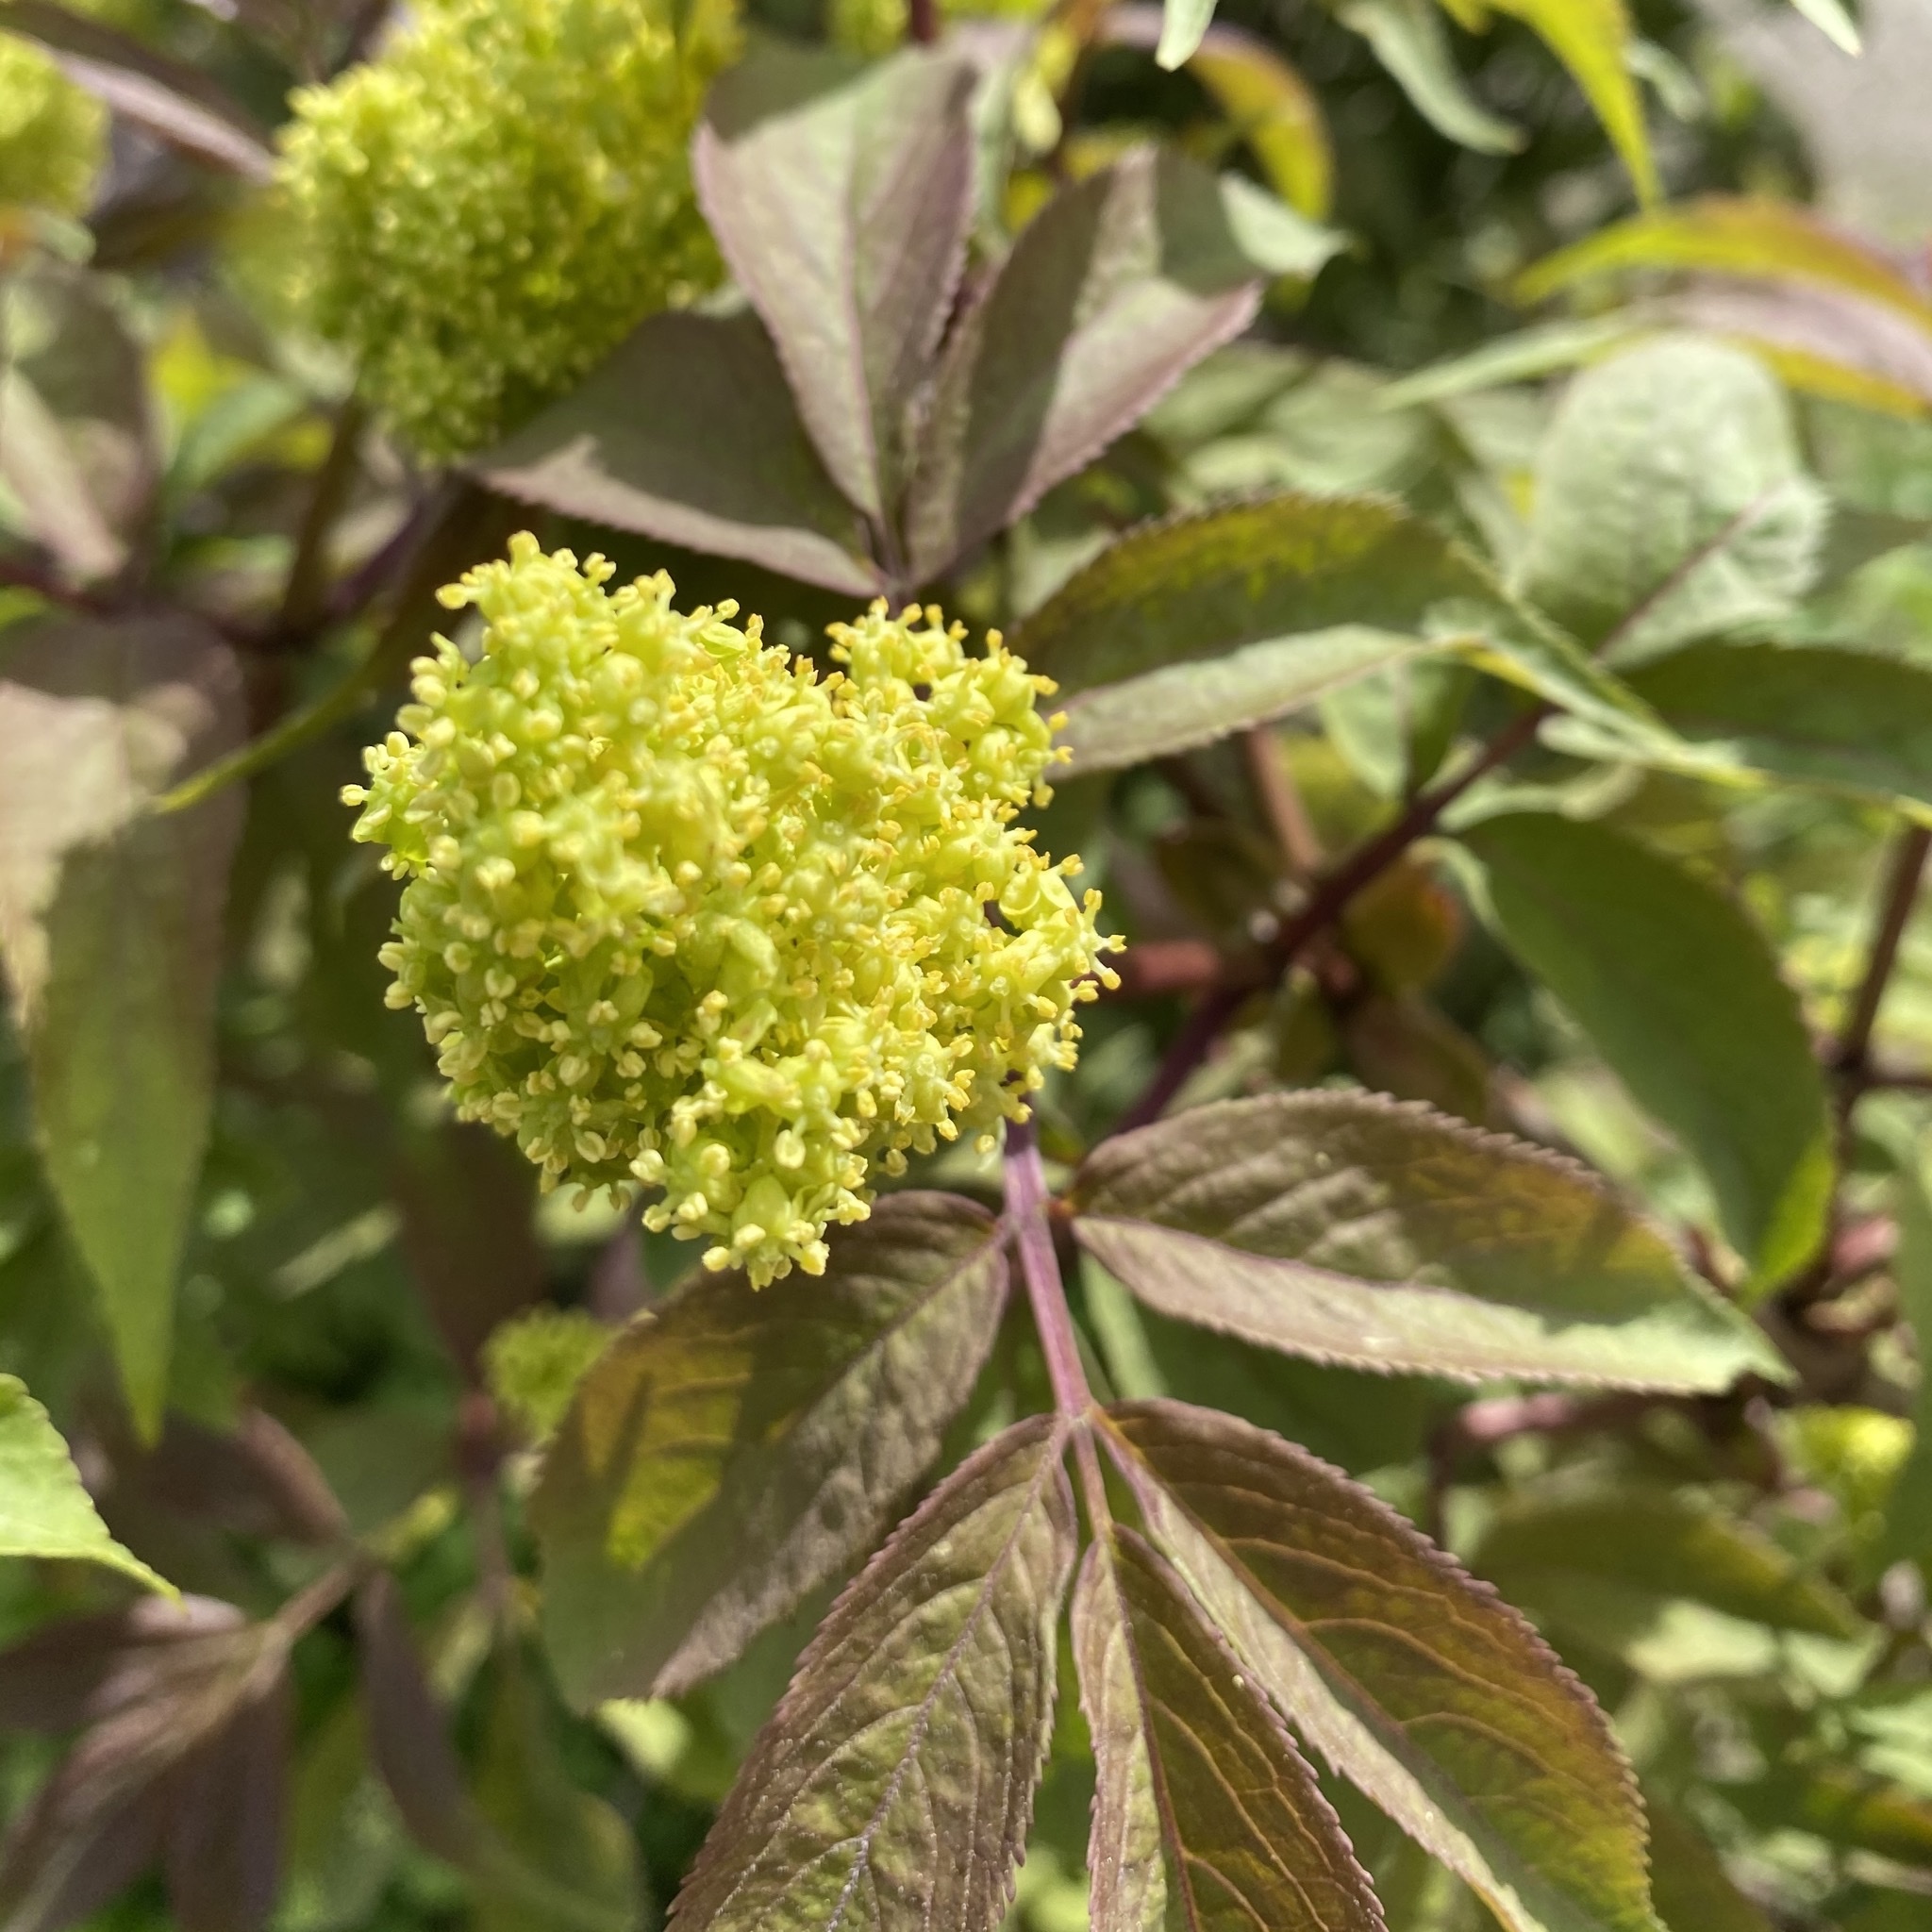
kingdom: Plantae
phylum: Tracheophyta
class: Magnoliopsida
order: Dipsacales
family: Viburnaceae
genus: Sambucus
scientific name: Sambucus racemosa
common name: Red-berried elder
